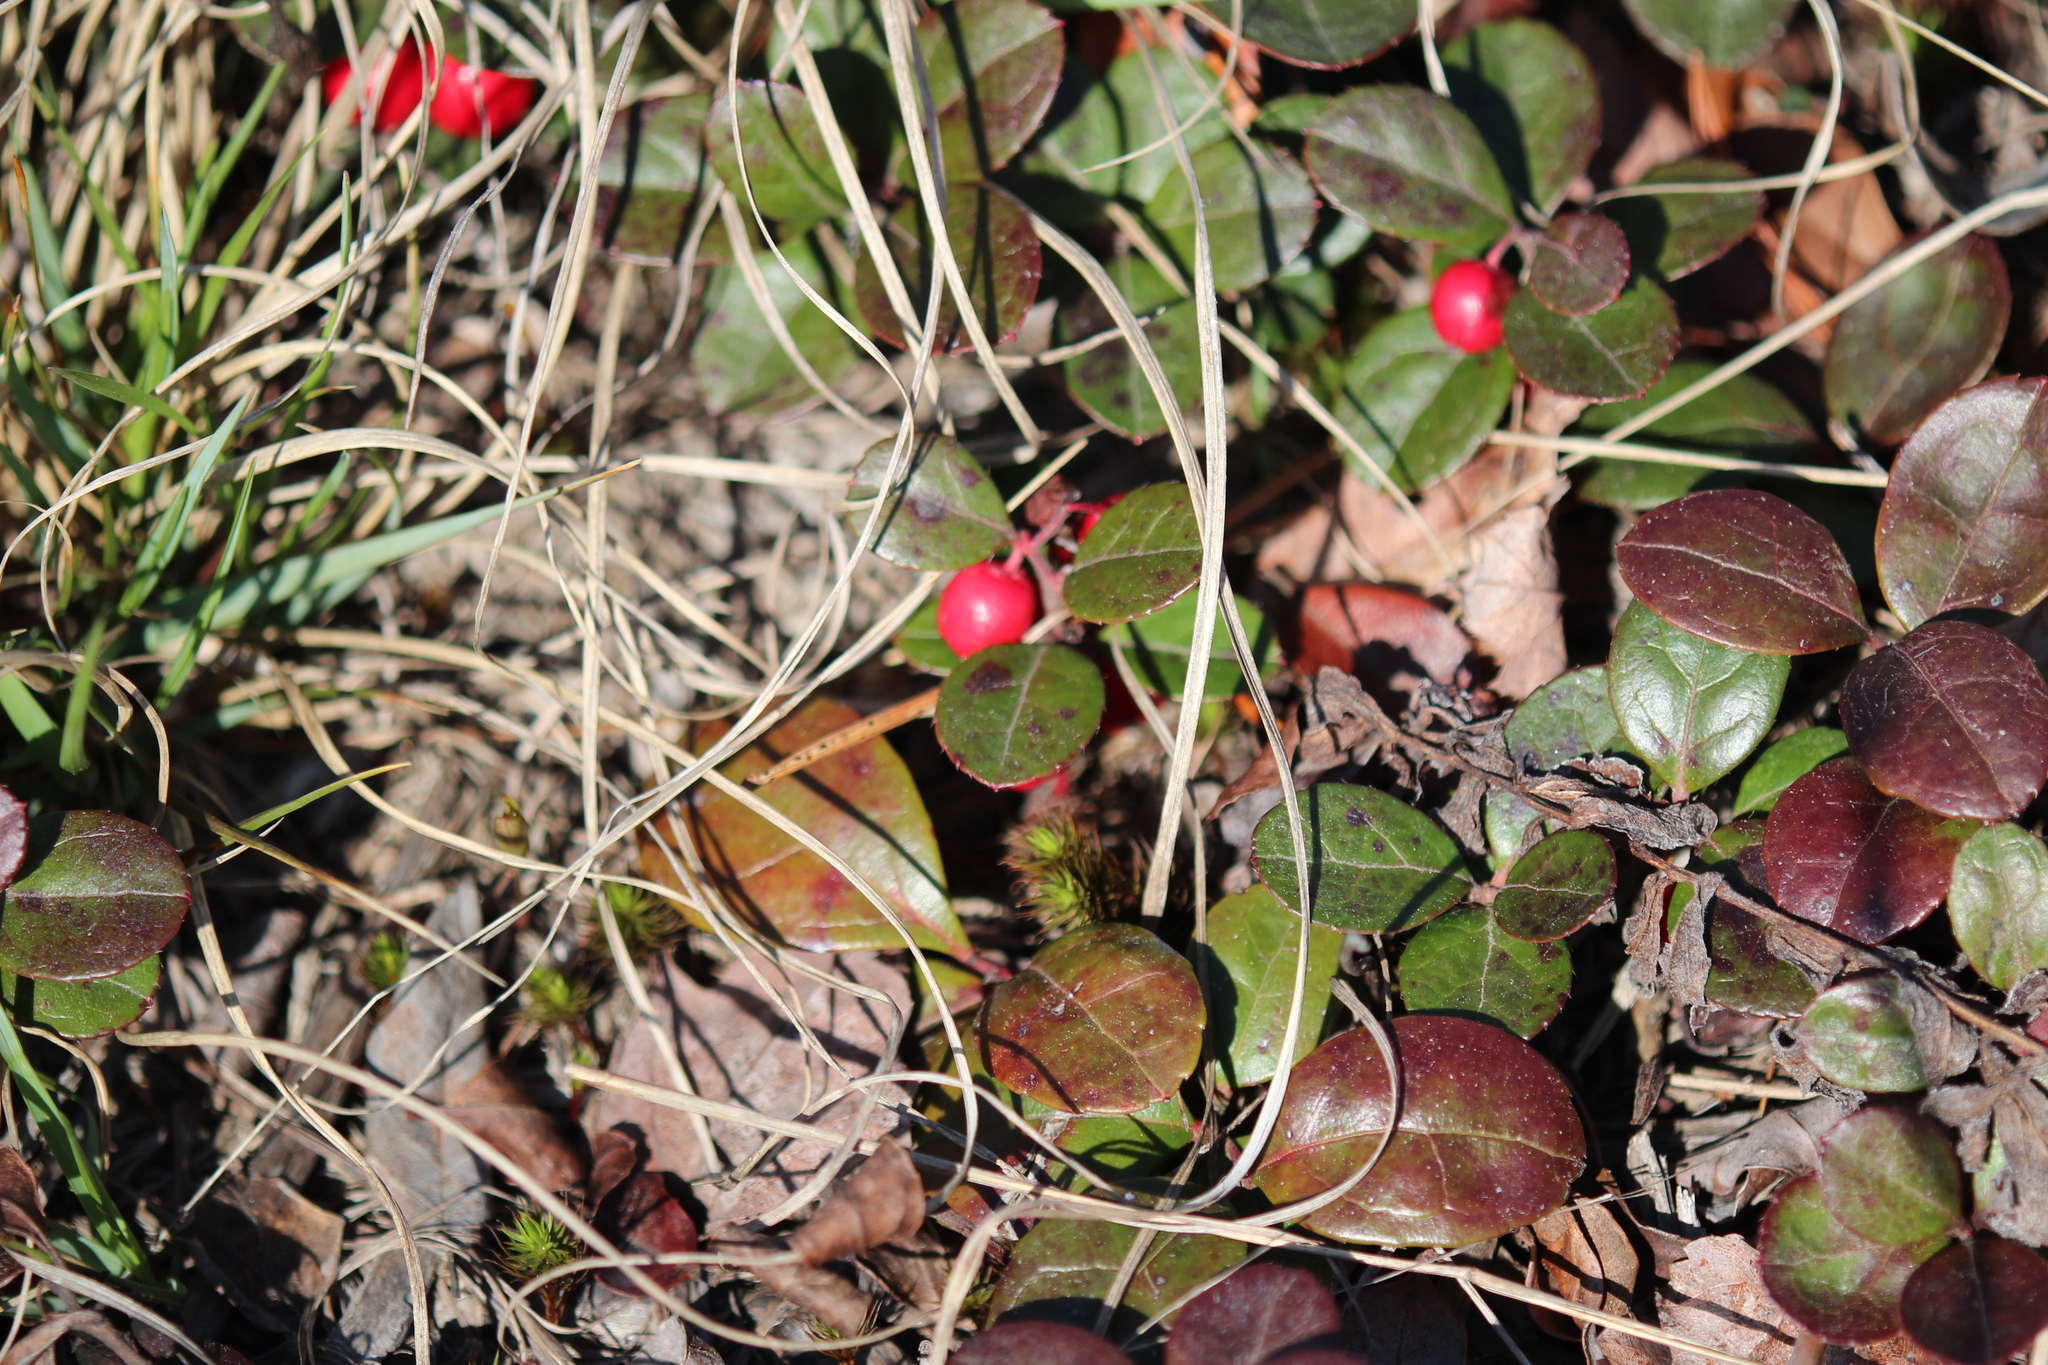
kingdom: Plantae
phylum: Tracheophyta
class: Magnoliopsida
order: Ericales
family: Ericaceae
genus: Gaultheria
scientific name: Gaultheria procumbens
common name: Checkerberry
